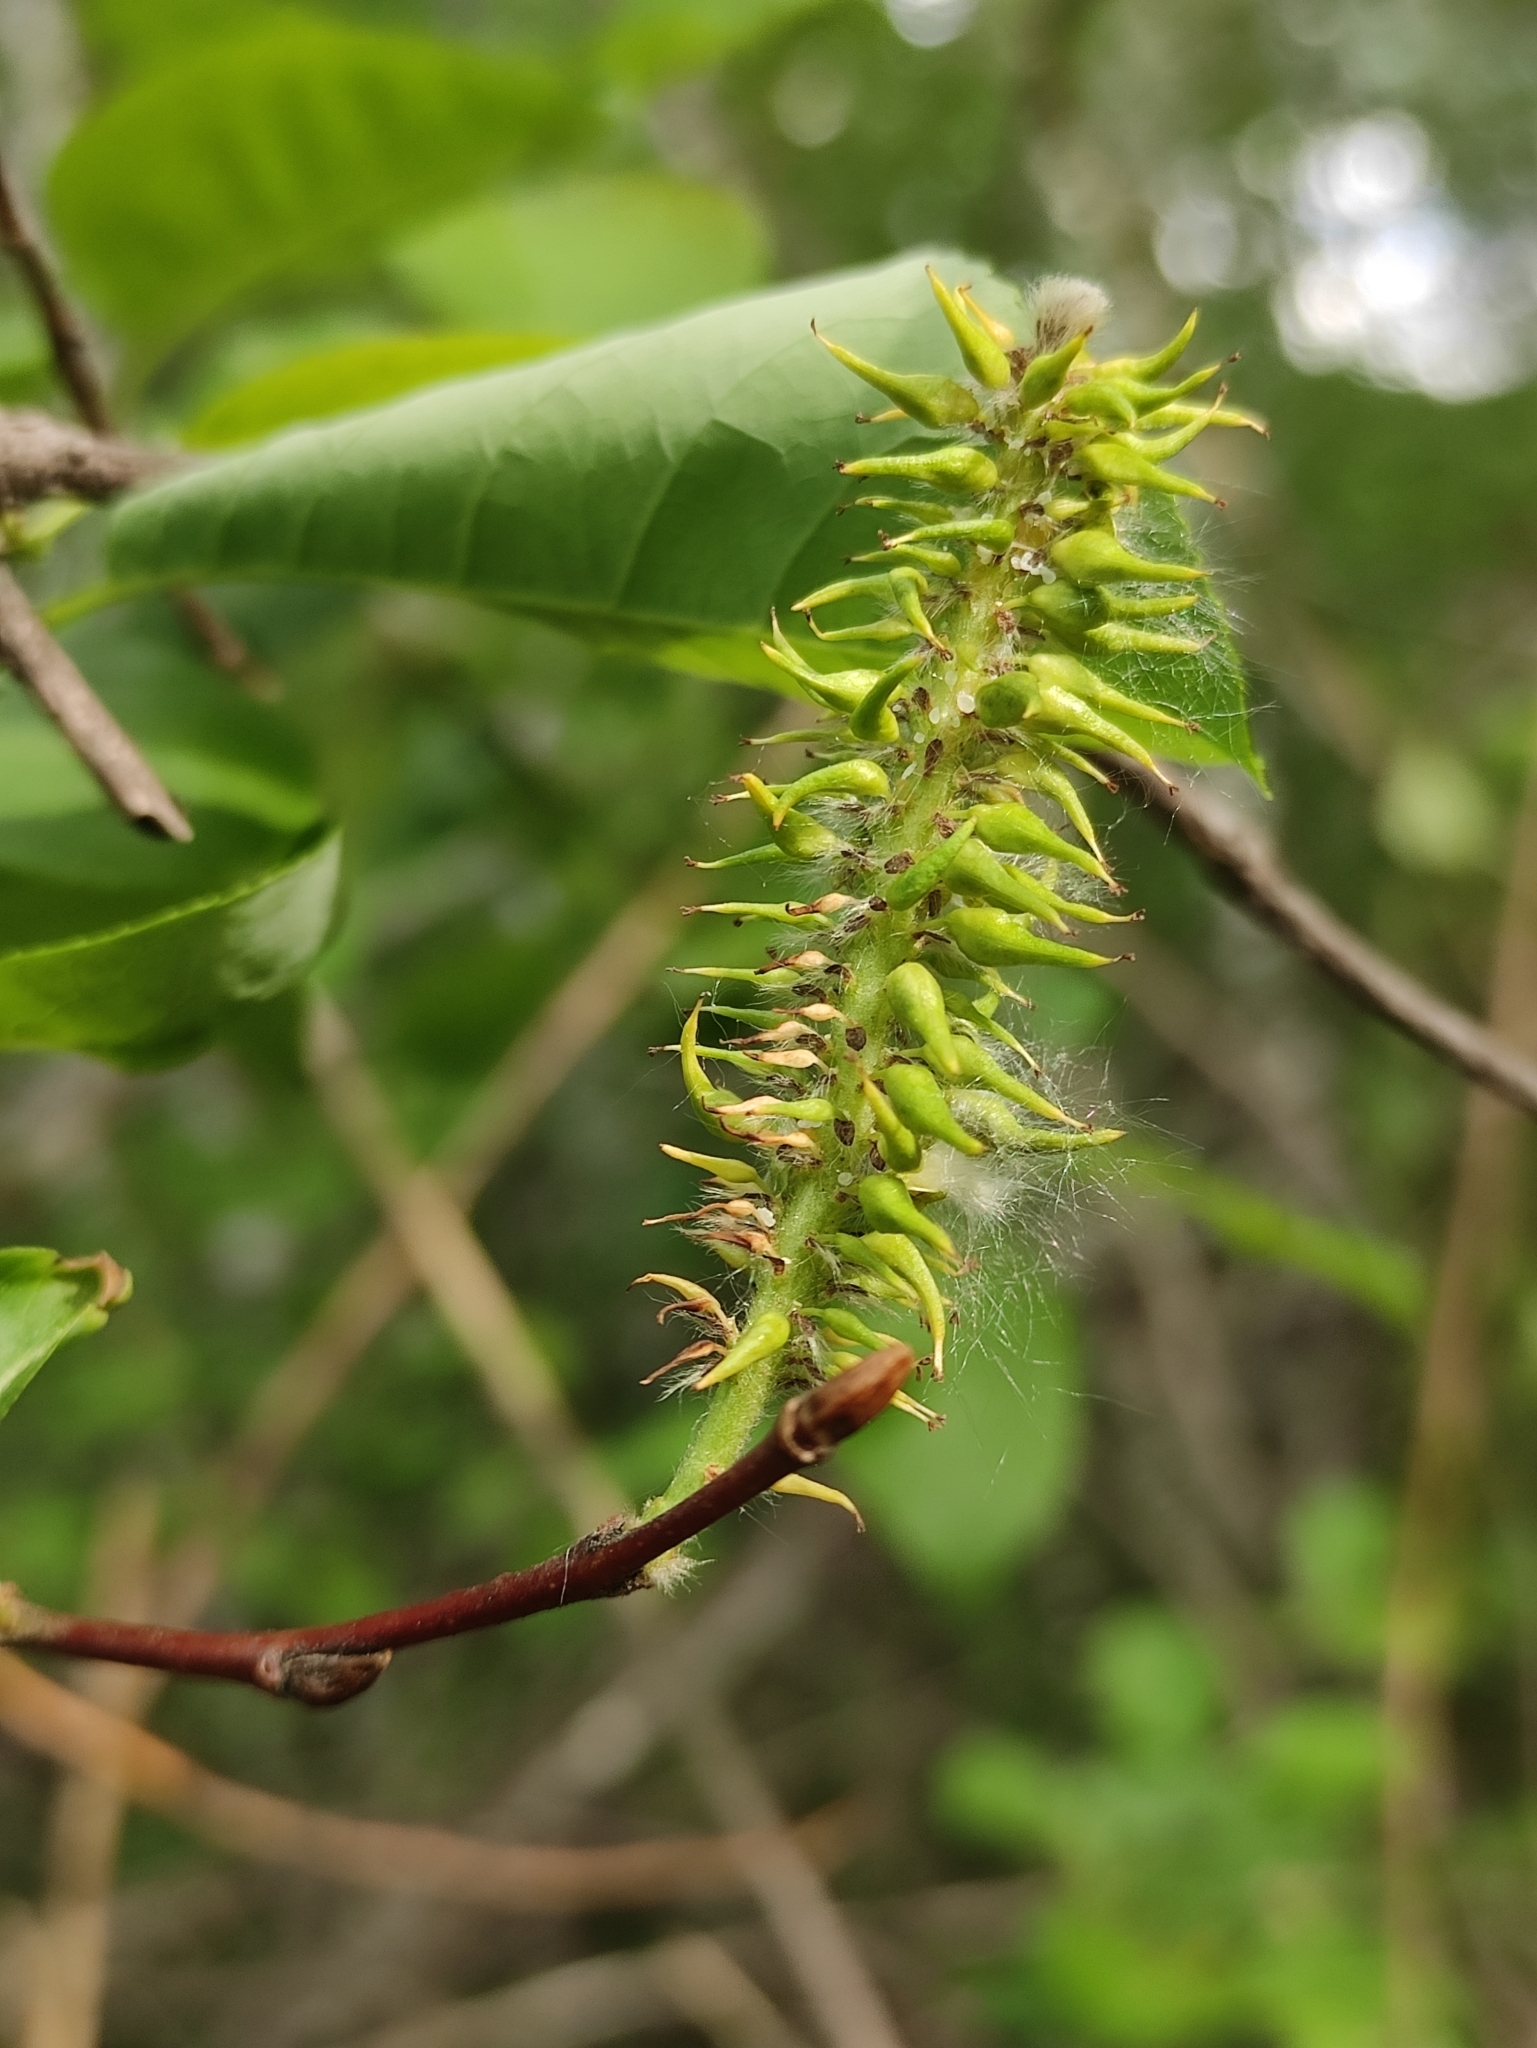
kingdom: Plantae
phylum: Tracheophyta
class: Magnoliopsida
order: Malpighiales
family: Salicaceae
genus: Salix
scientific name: Salix pyrolifolia
